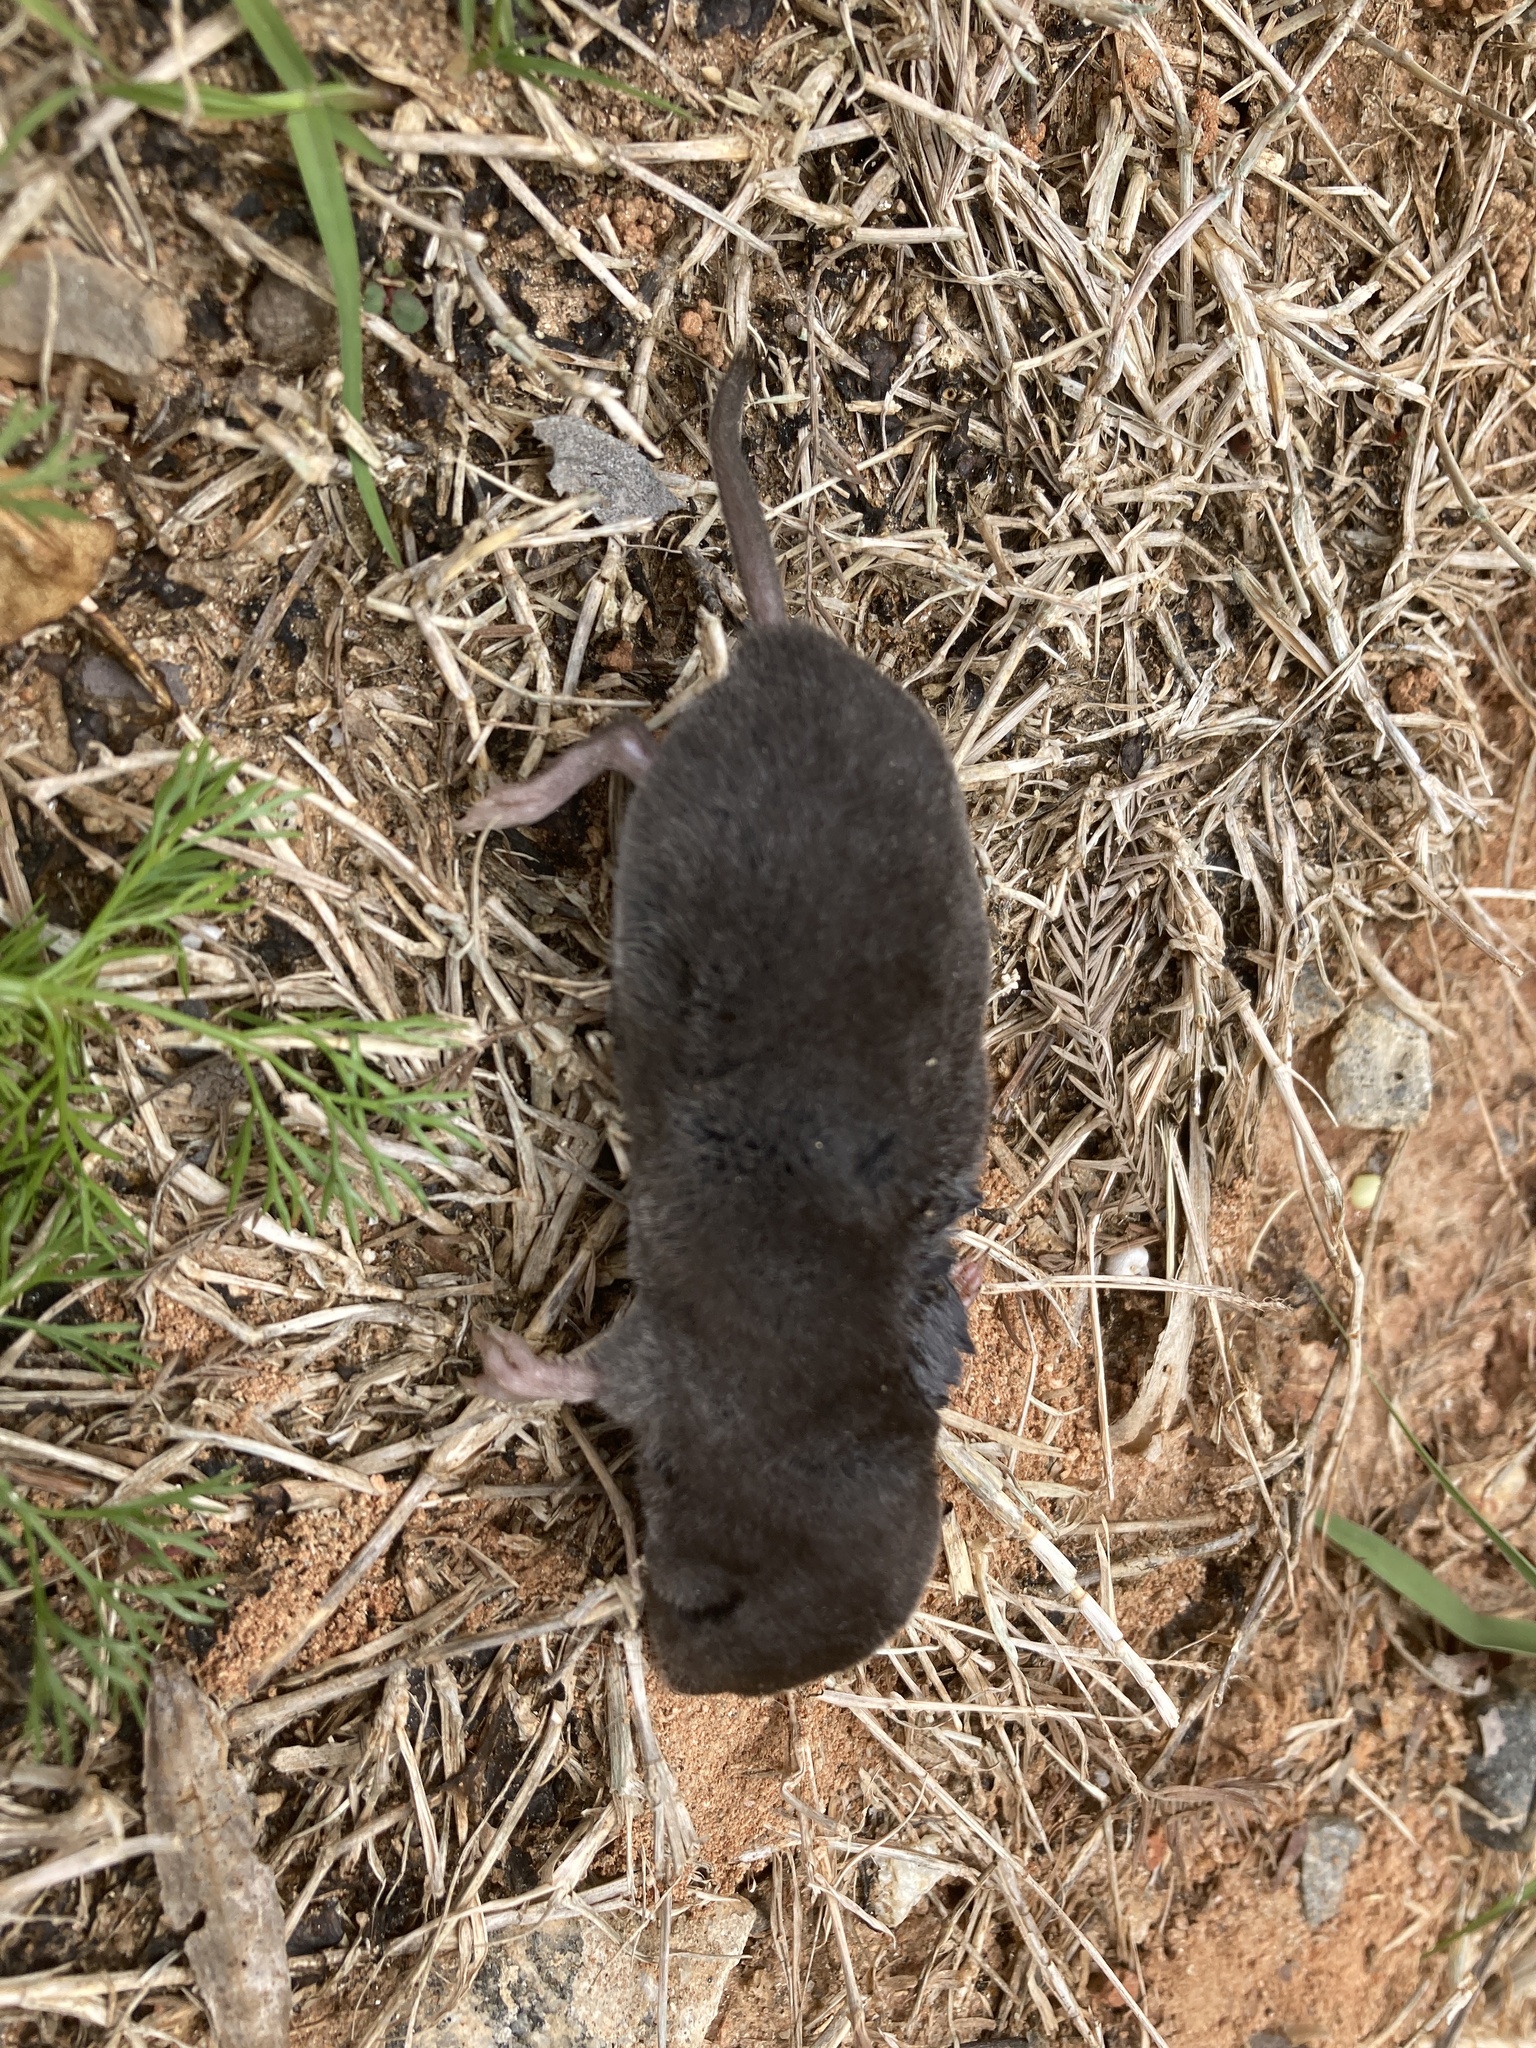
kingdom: Animalia
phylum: Chordata
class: Mammalia
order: Soricomorpha
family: Soricidae
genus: Blarina
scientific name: Blarina brevicauda
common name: Northern short-tailed shrew
